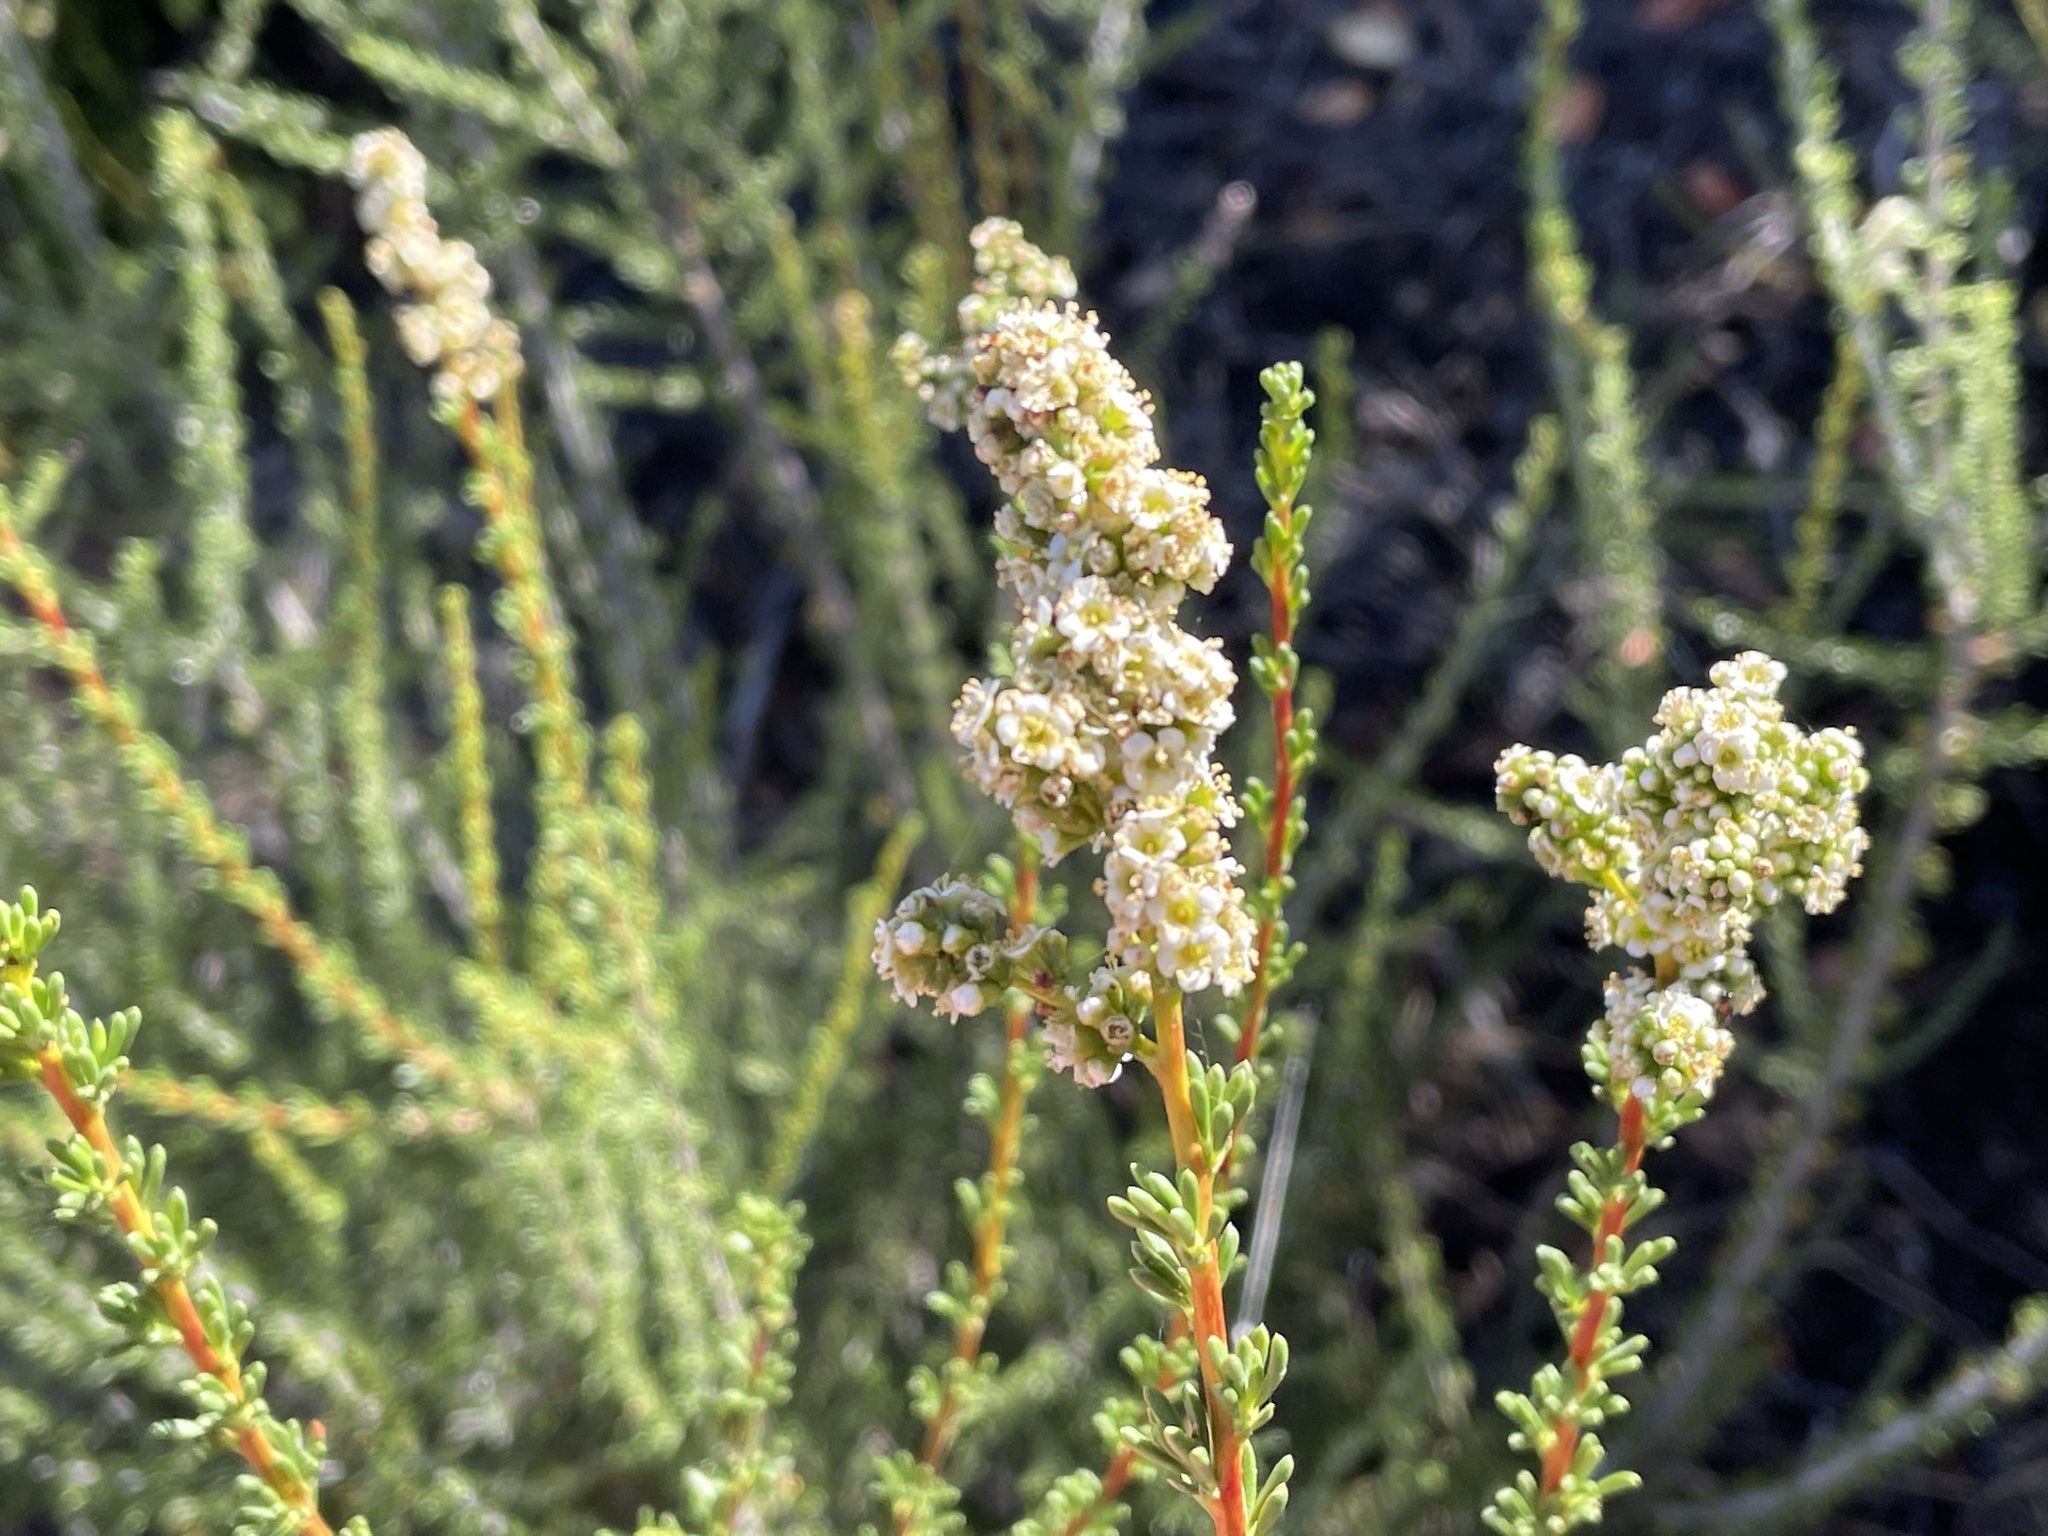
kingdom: Plantae
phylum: Tracheophyta
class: Magnoliopsida
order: Rosales
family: Rosaceae
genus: Adenostoma
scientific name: Adenostoma fasciculatum
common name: Chamise
